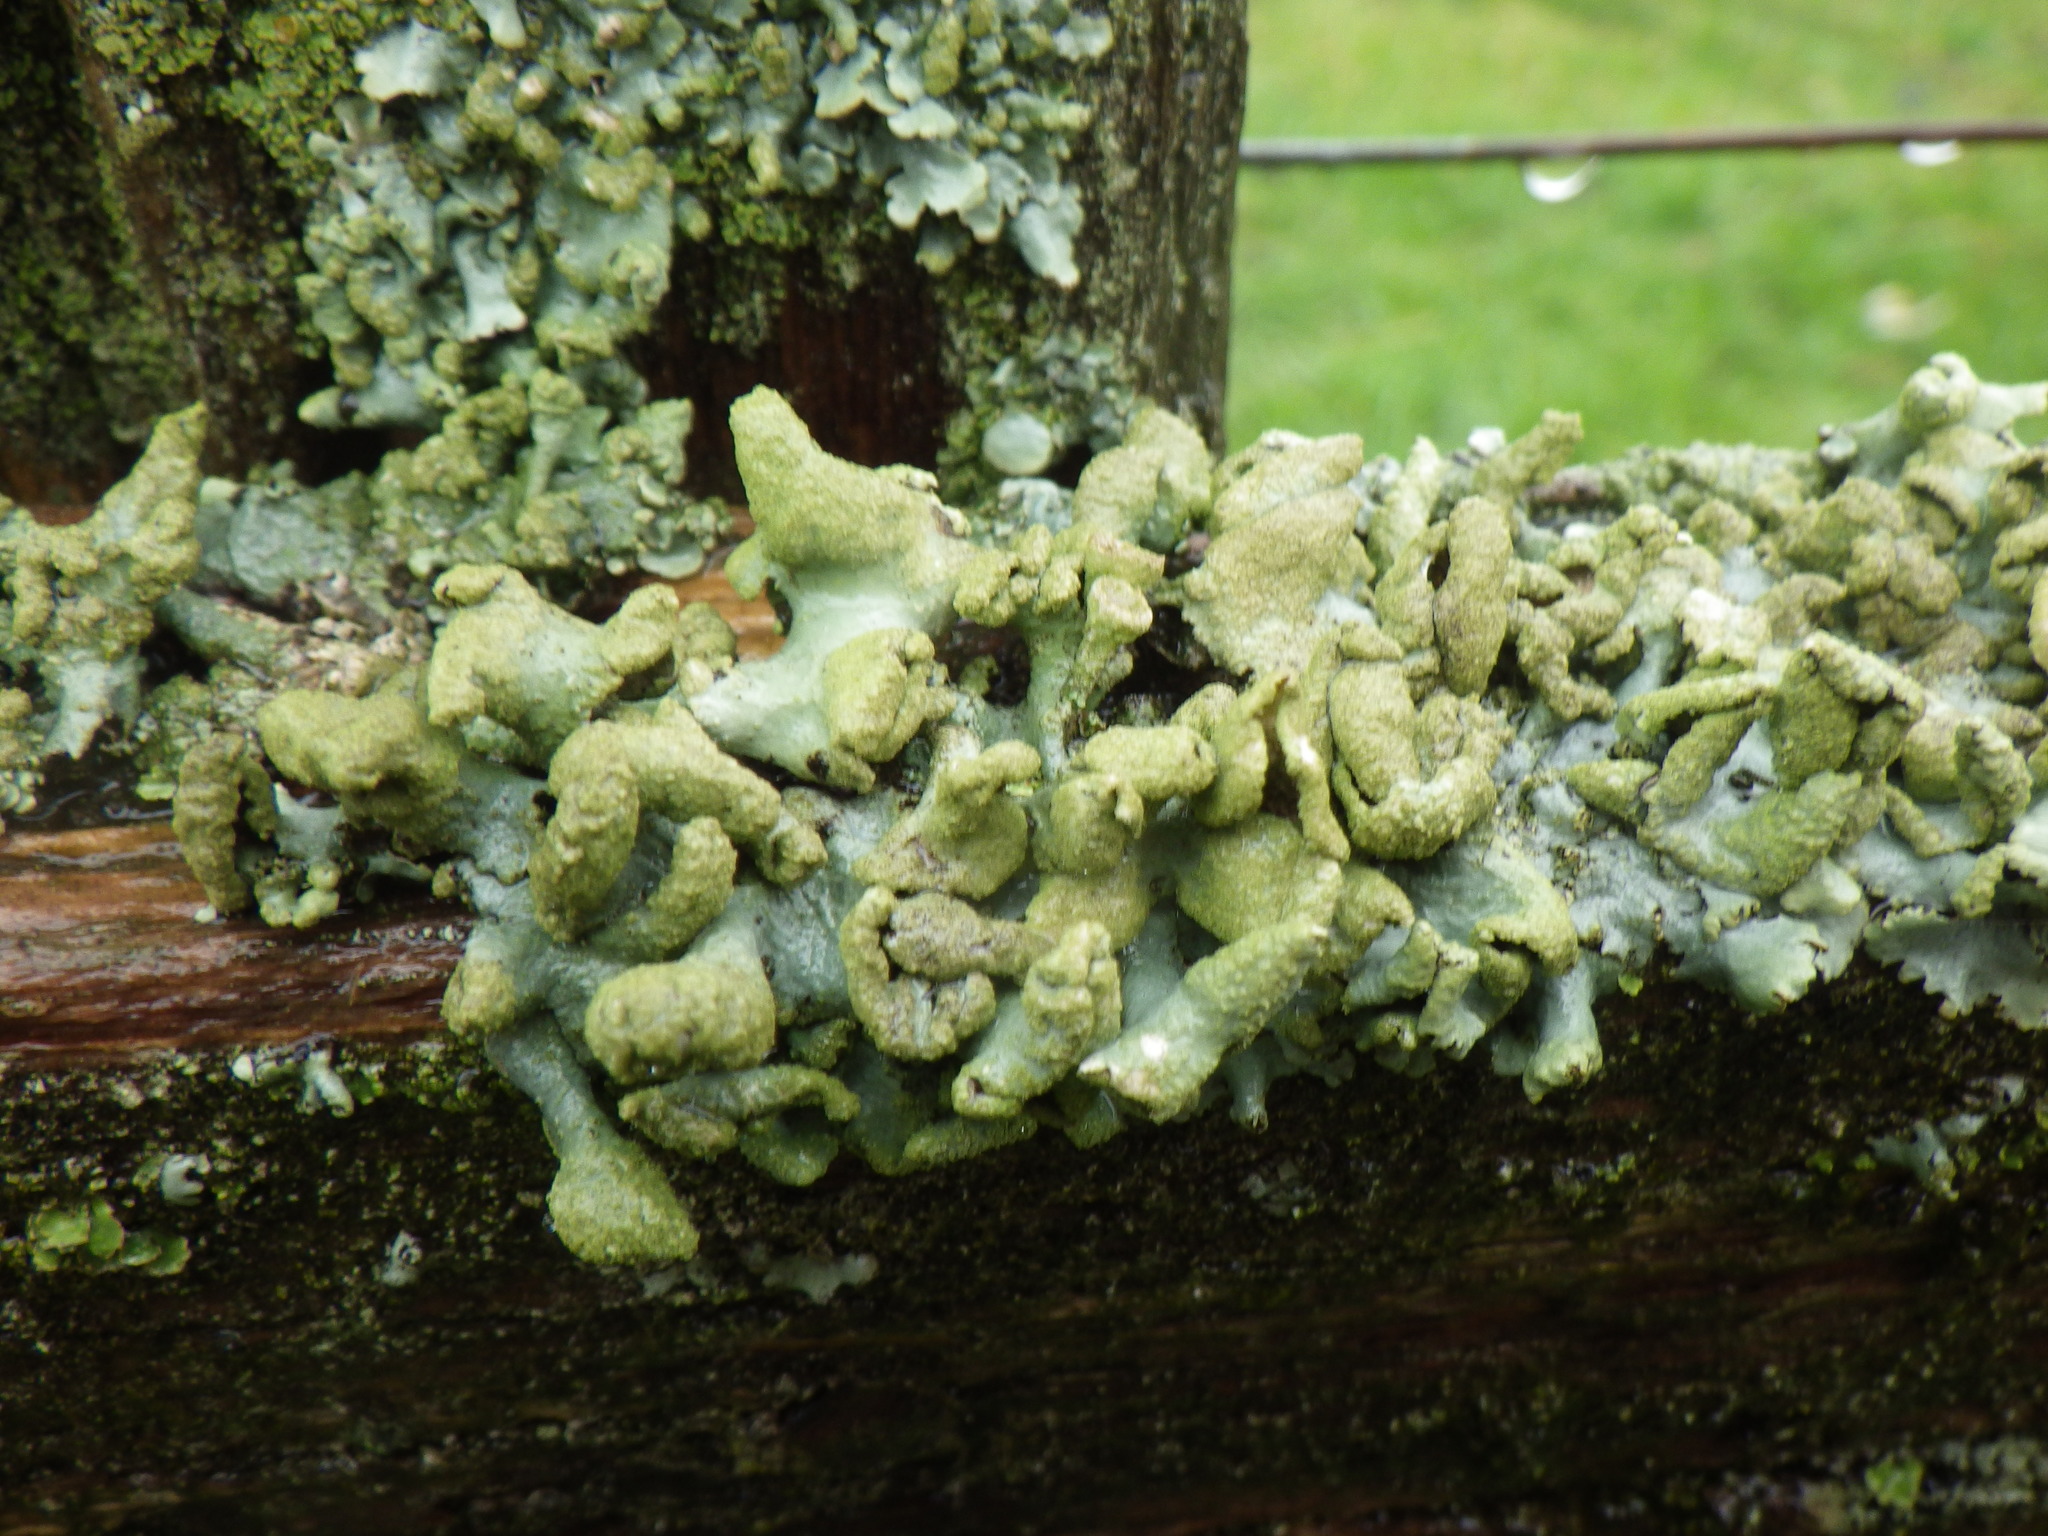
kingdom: Fungi
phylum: Ascomycota
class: Lecanoromycetes
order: Lecanorales
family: Parmeliaceae
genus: Hypotrachyna
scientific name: Hypotrachyna revoluta
